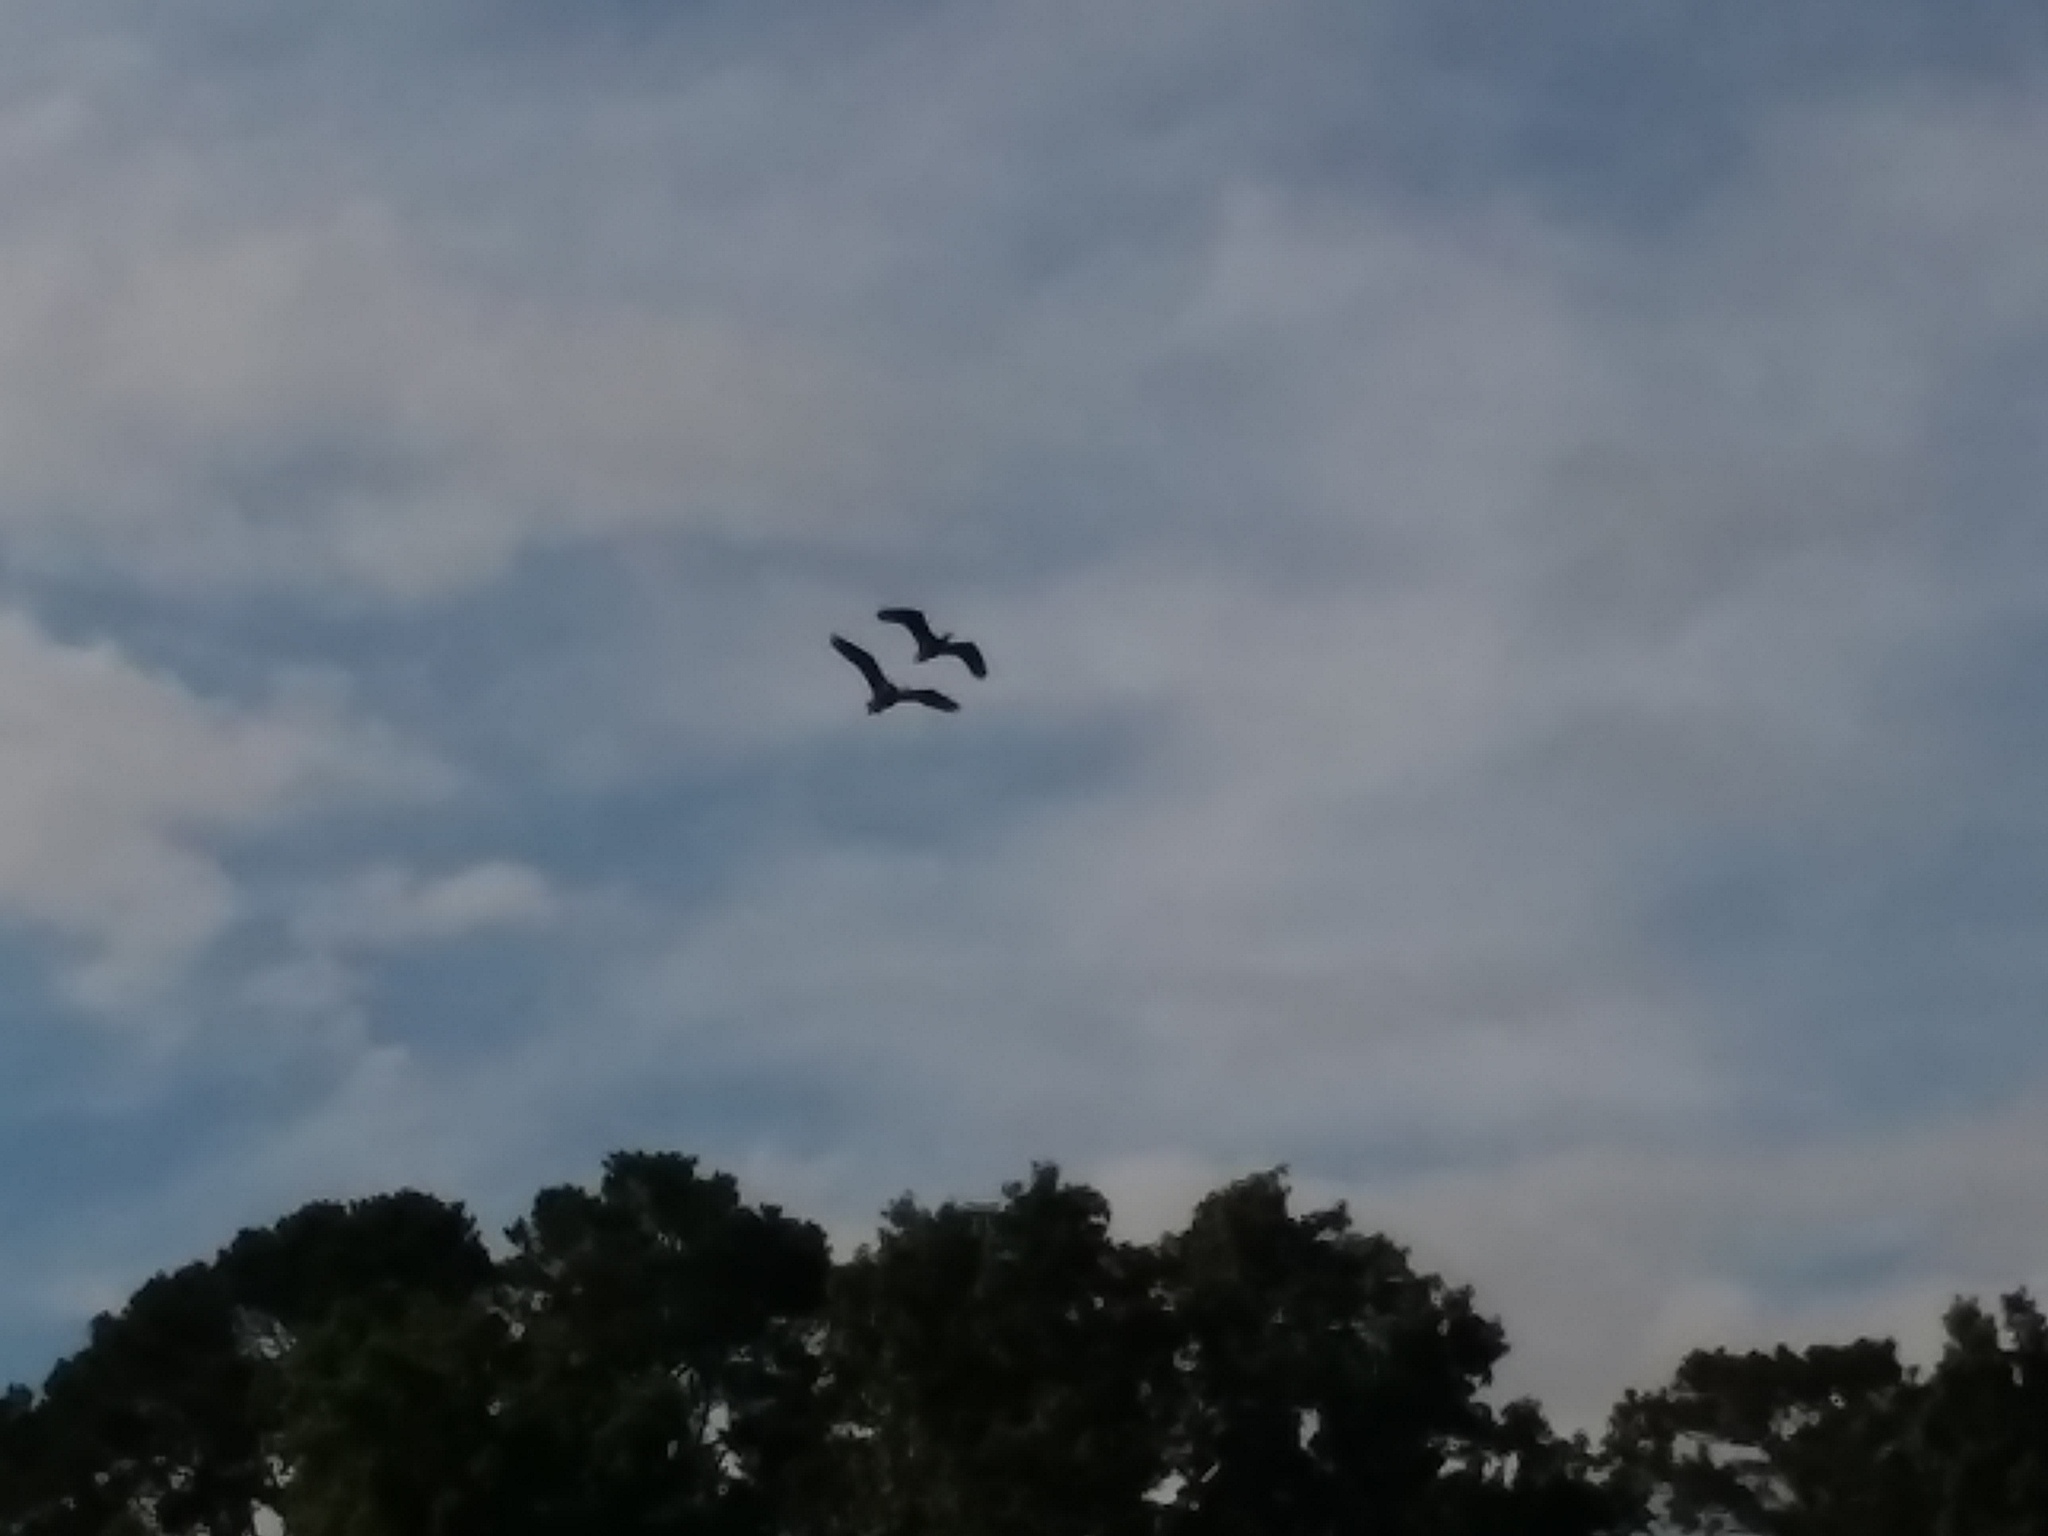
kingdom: Animalia
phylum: Chordata
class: Aves
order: Anseriformes
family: Anatidae
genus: Anas
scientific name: Anas platyrhynchos
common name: Mallard
